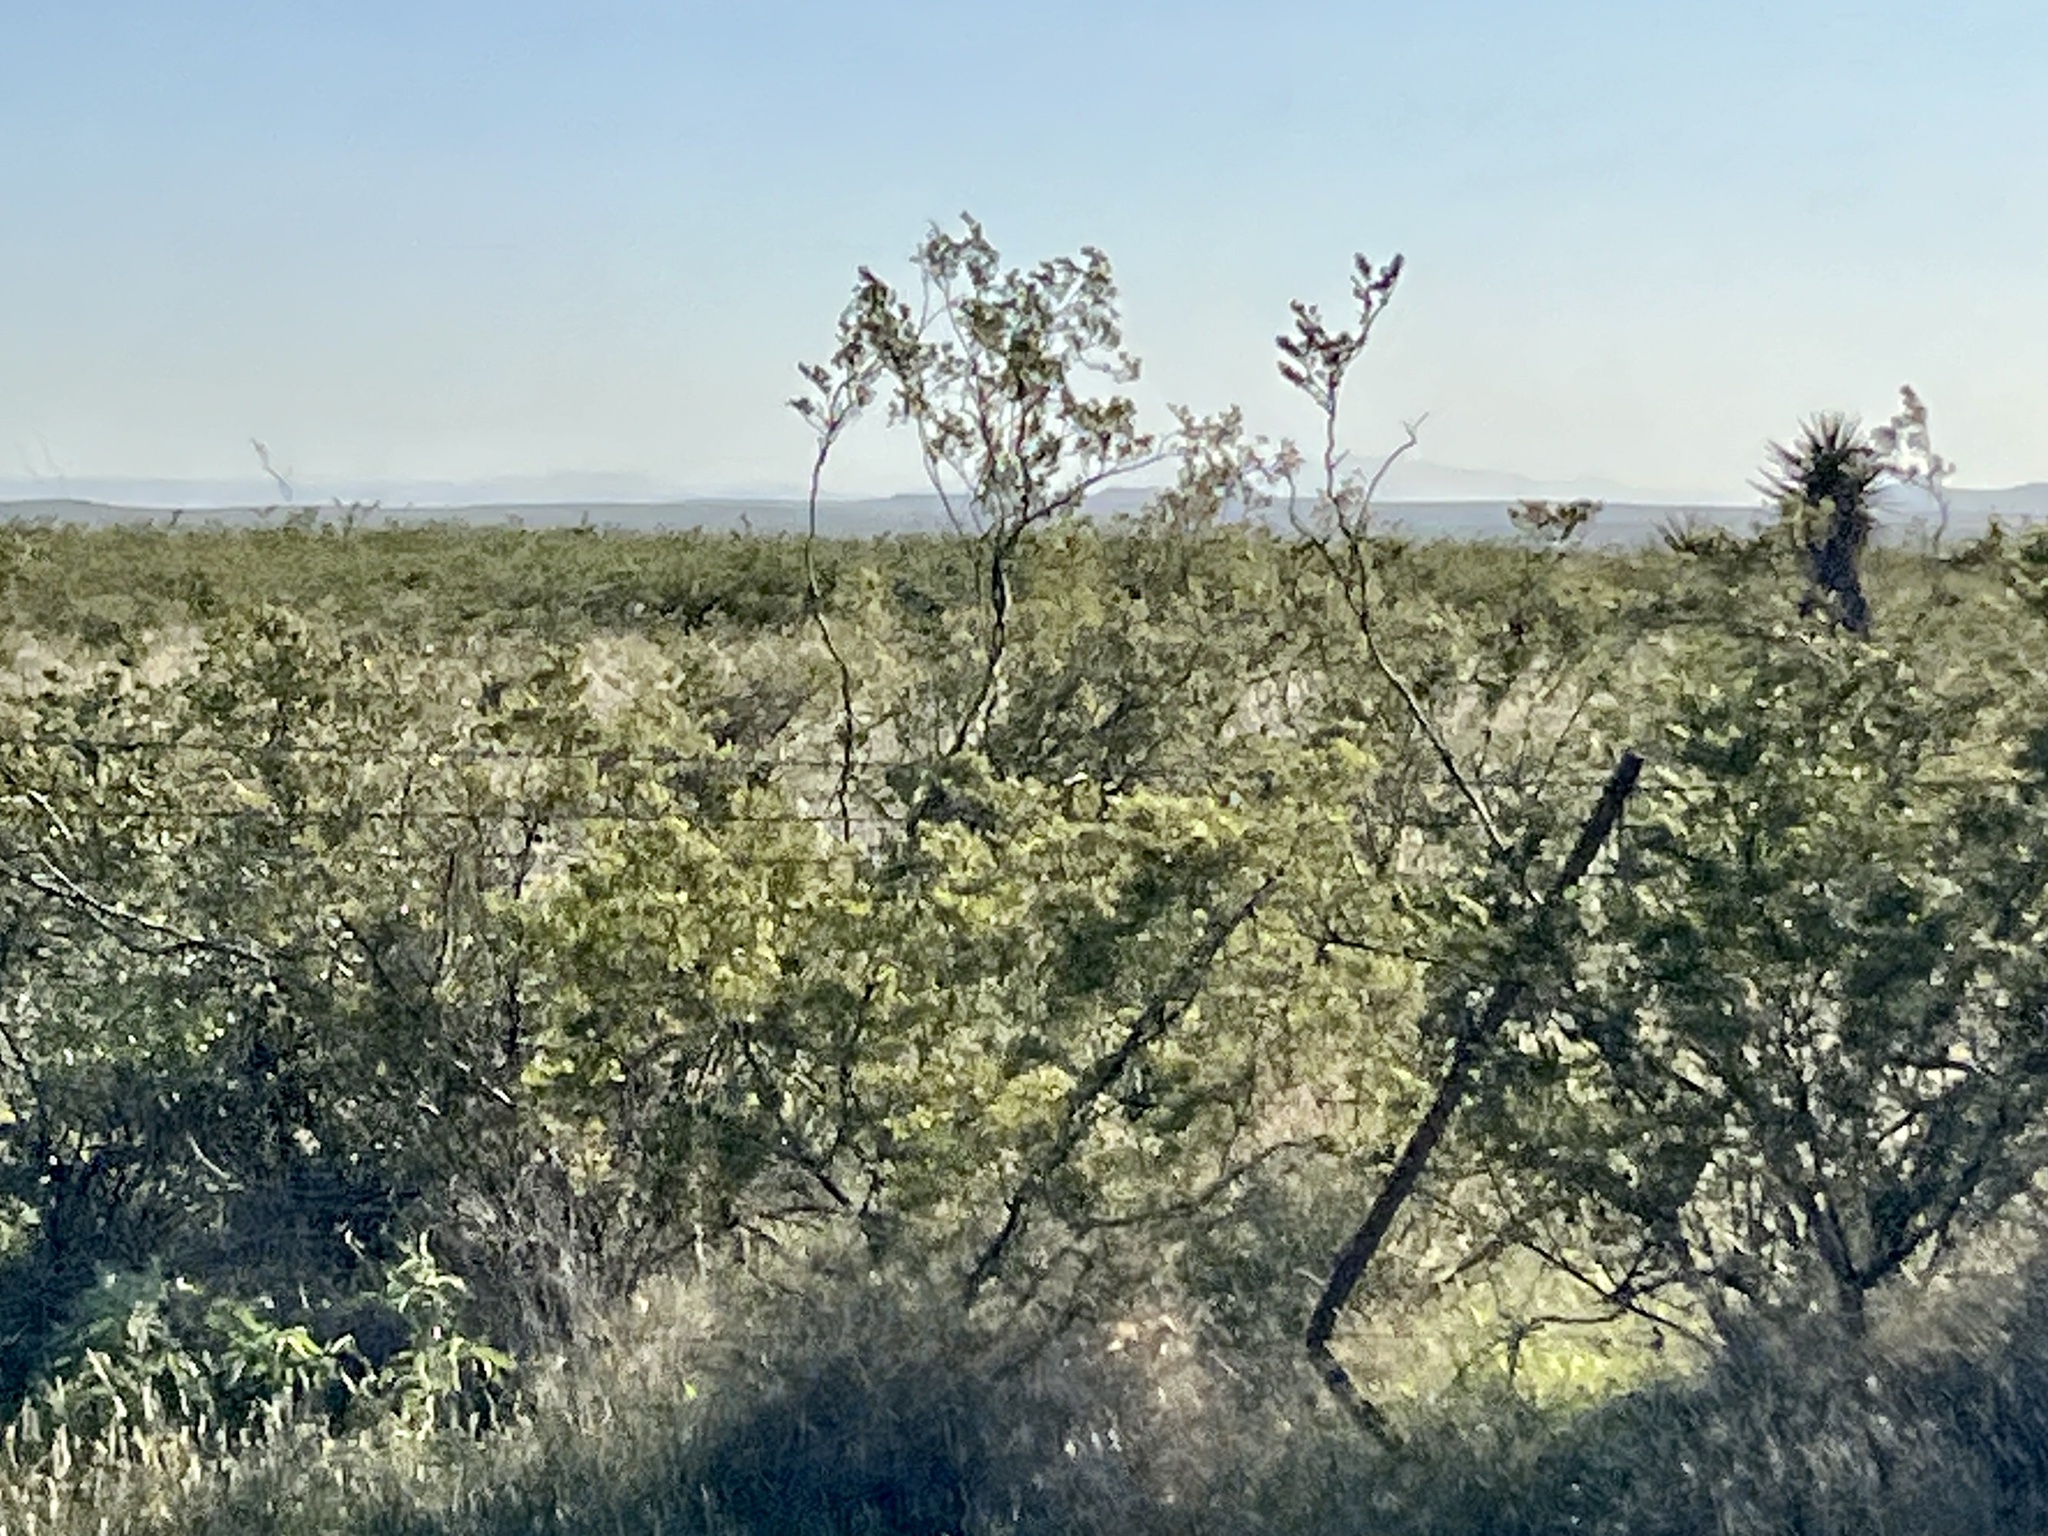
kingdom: Plantae
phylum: Tracheophyta
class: Magnoliopsida
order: Zygophyllales
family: Zygophyllaceae
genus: Larrea
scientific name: Larrea tridentata
